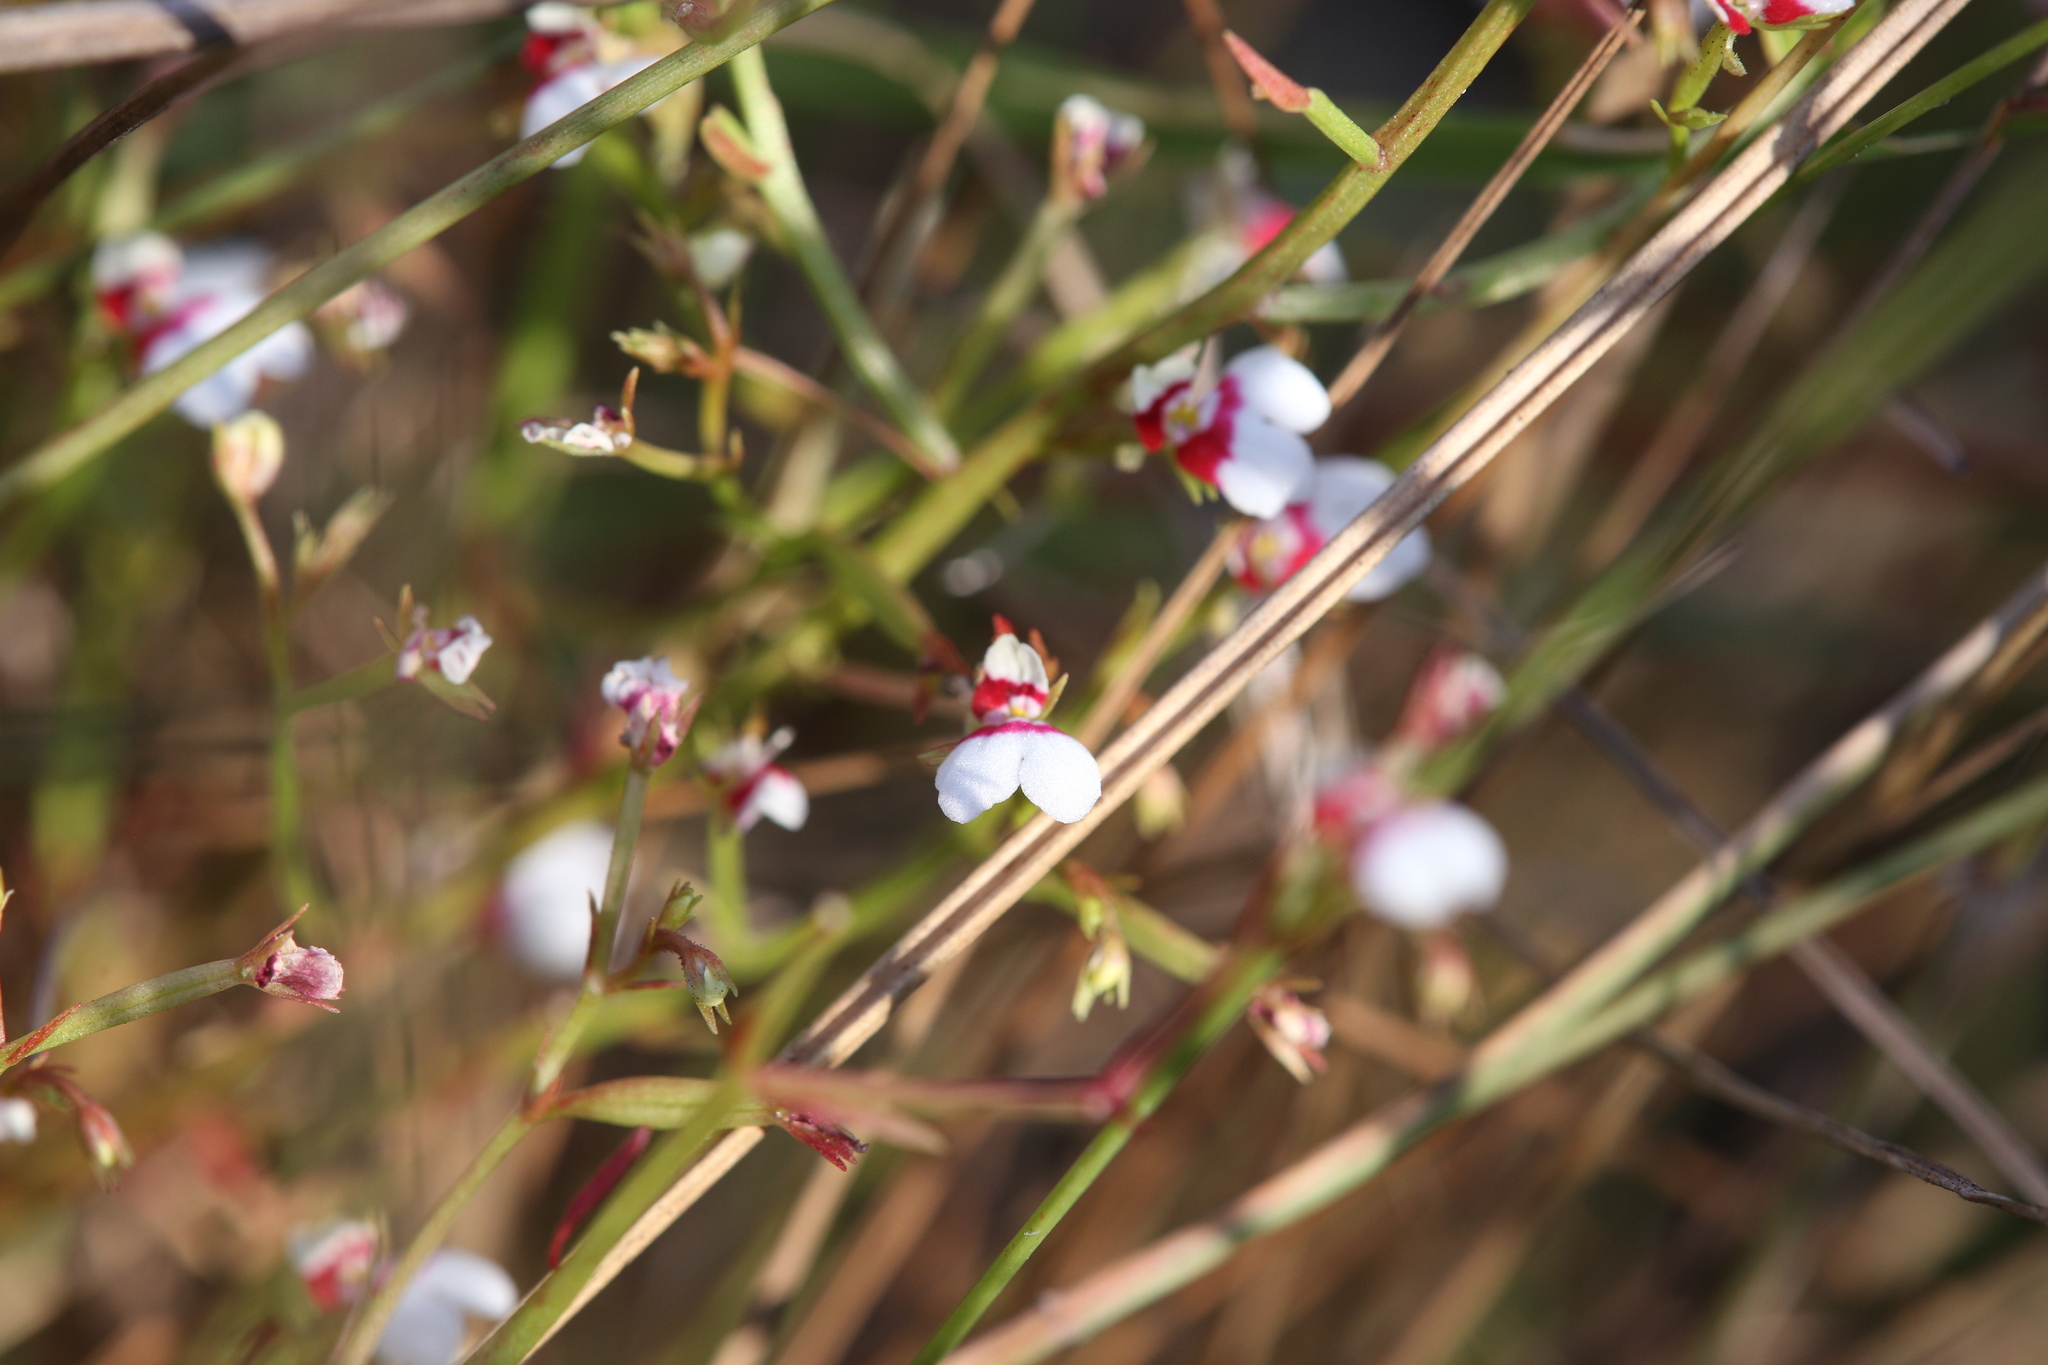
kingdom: Plantae
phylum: Tracheophyta
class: Magnoliopsida
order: Asterales
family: Stylidiaceae
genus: Stylidium
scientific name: Stylidium tenerrimum
